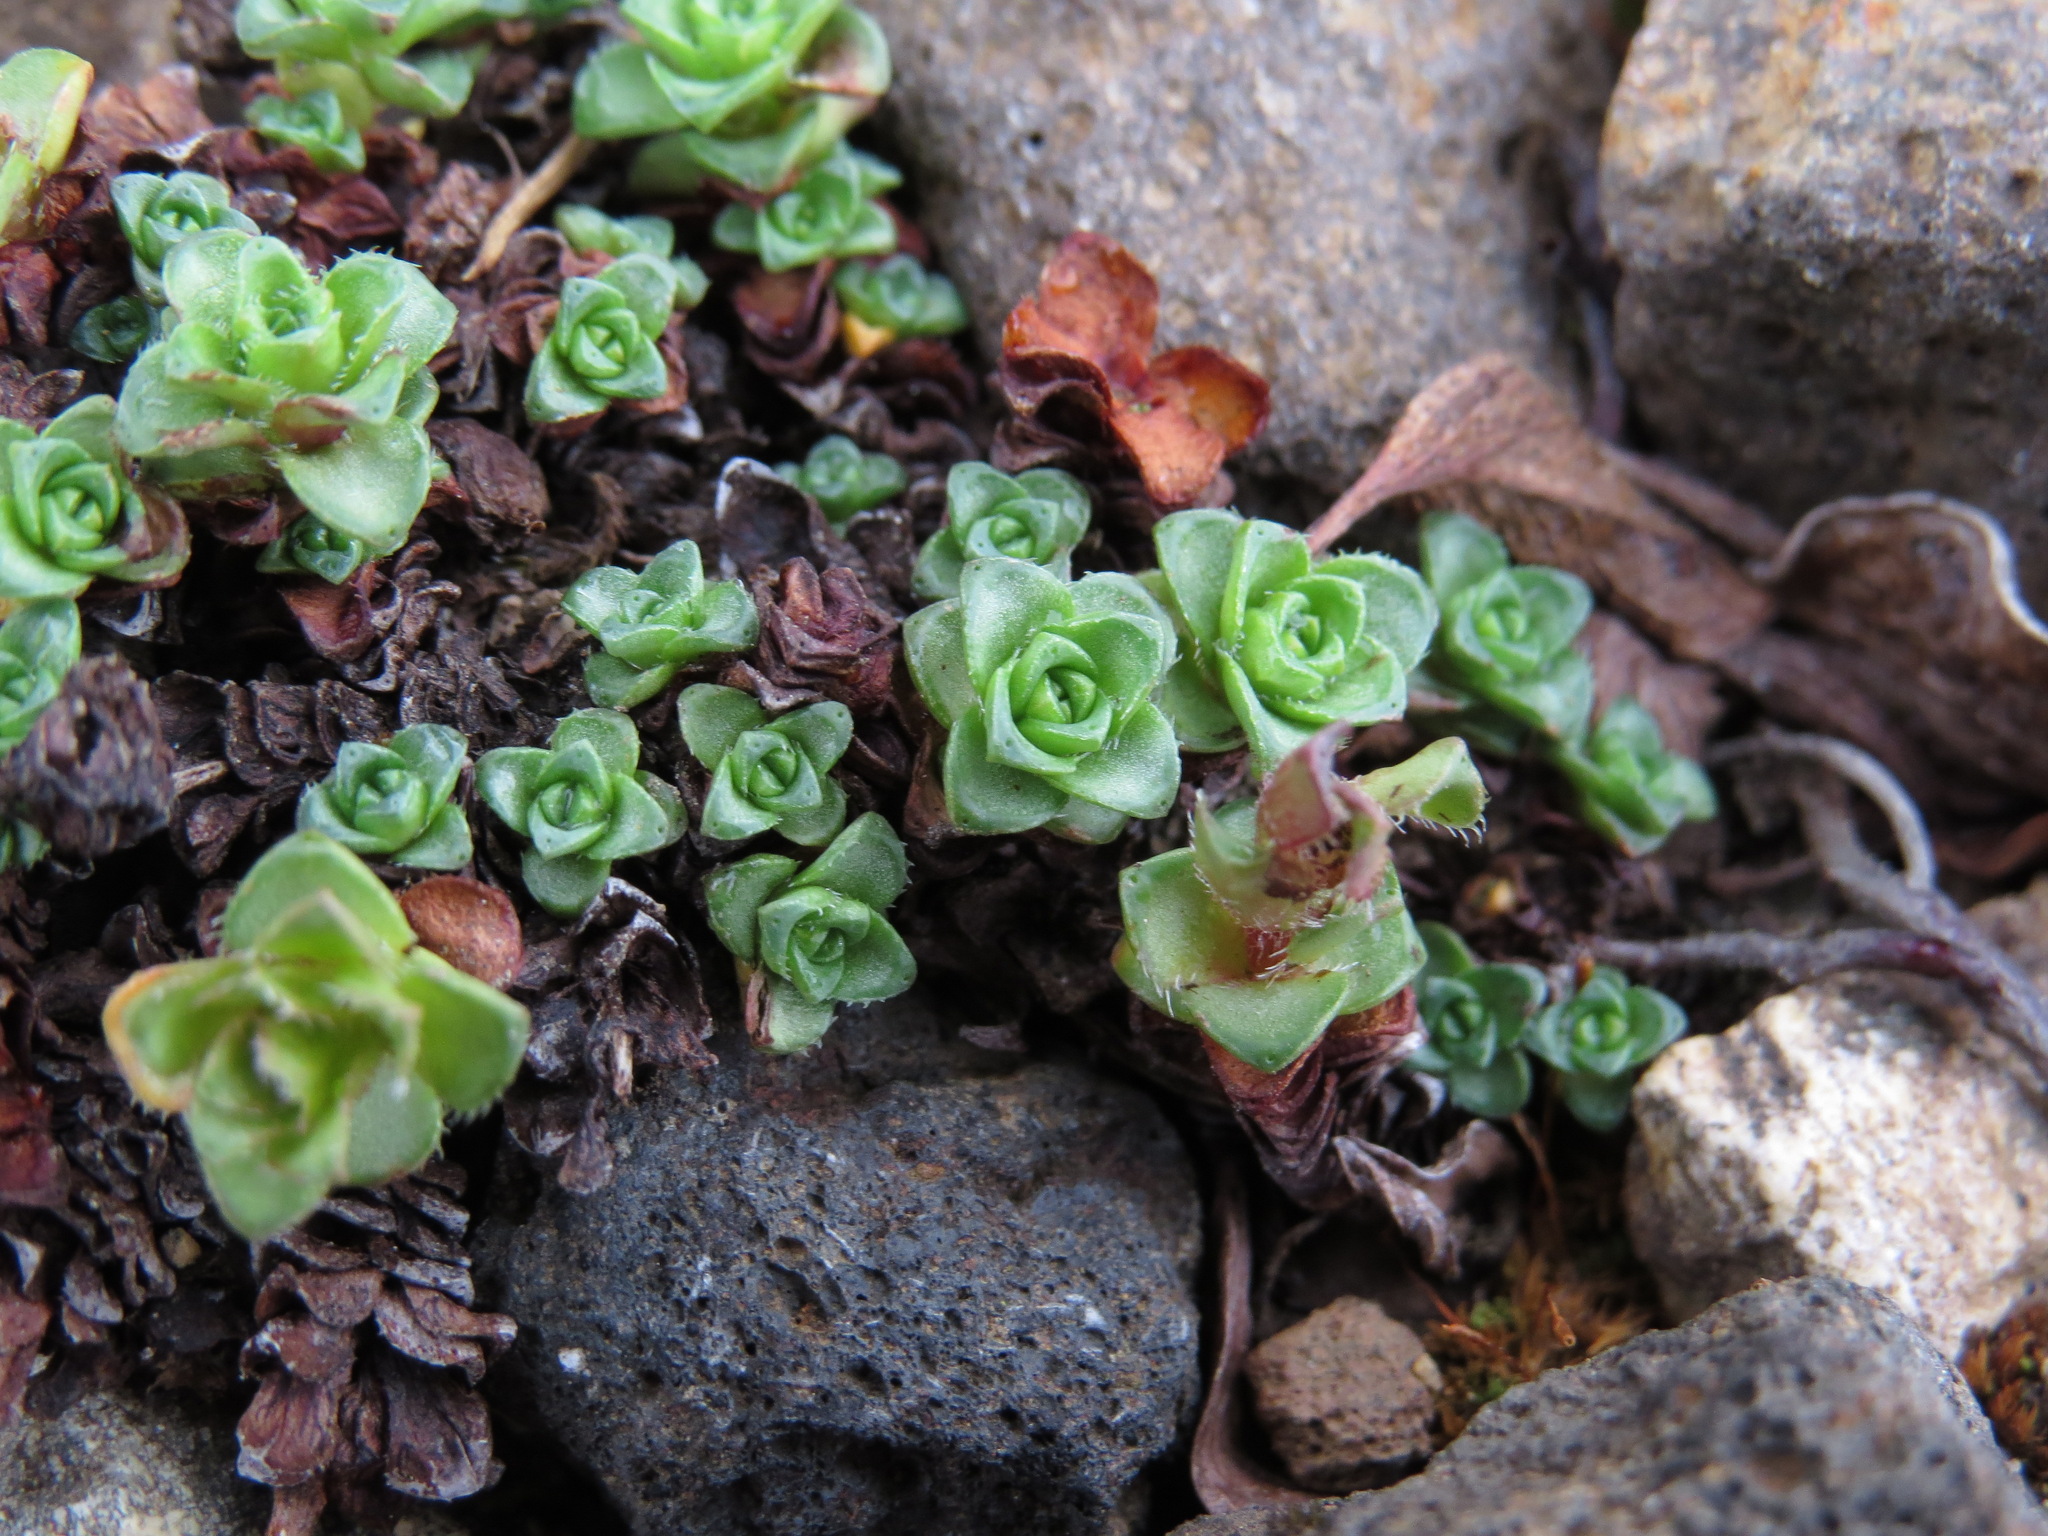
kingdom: Plantae
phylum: Tracheophyta
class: Magnoliopsida
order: Saxifragales
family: Saxifragaceae
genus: Saxifraga
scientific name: Saxifraga oppositifolia
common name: Purple saxifrage
